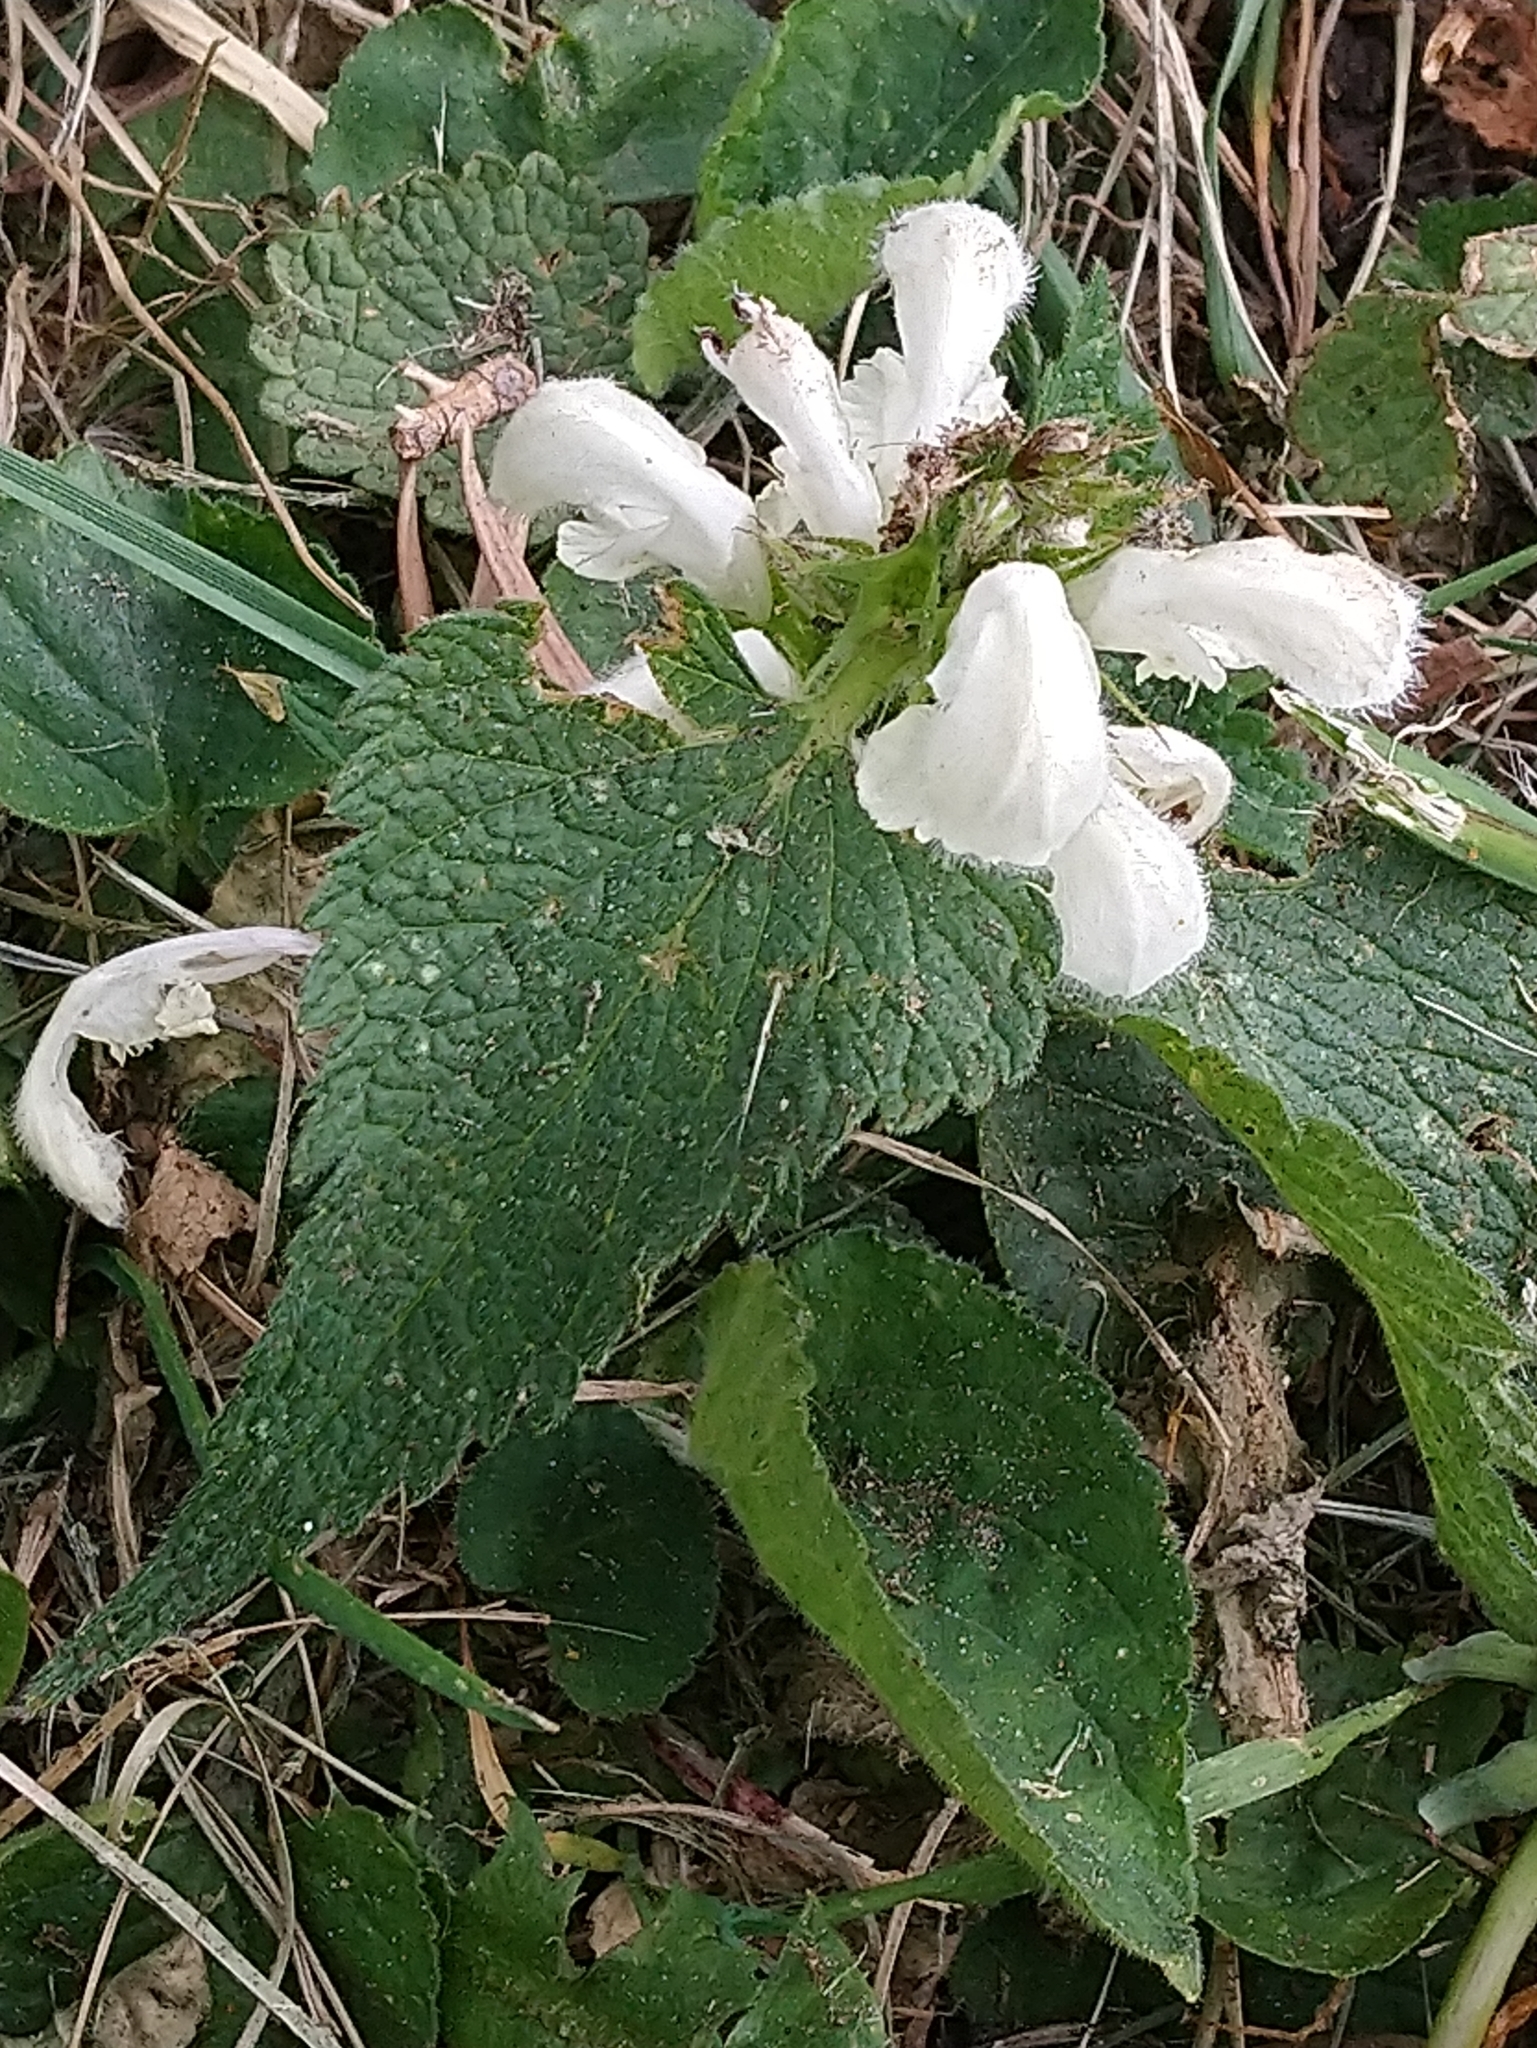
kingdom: Plantae
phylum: Tracheophyta
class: Magnoliopsida
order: Lamiales
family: Lamiaceae
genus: Lamium
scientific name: Lamium album
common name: White dead-nettle
